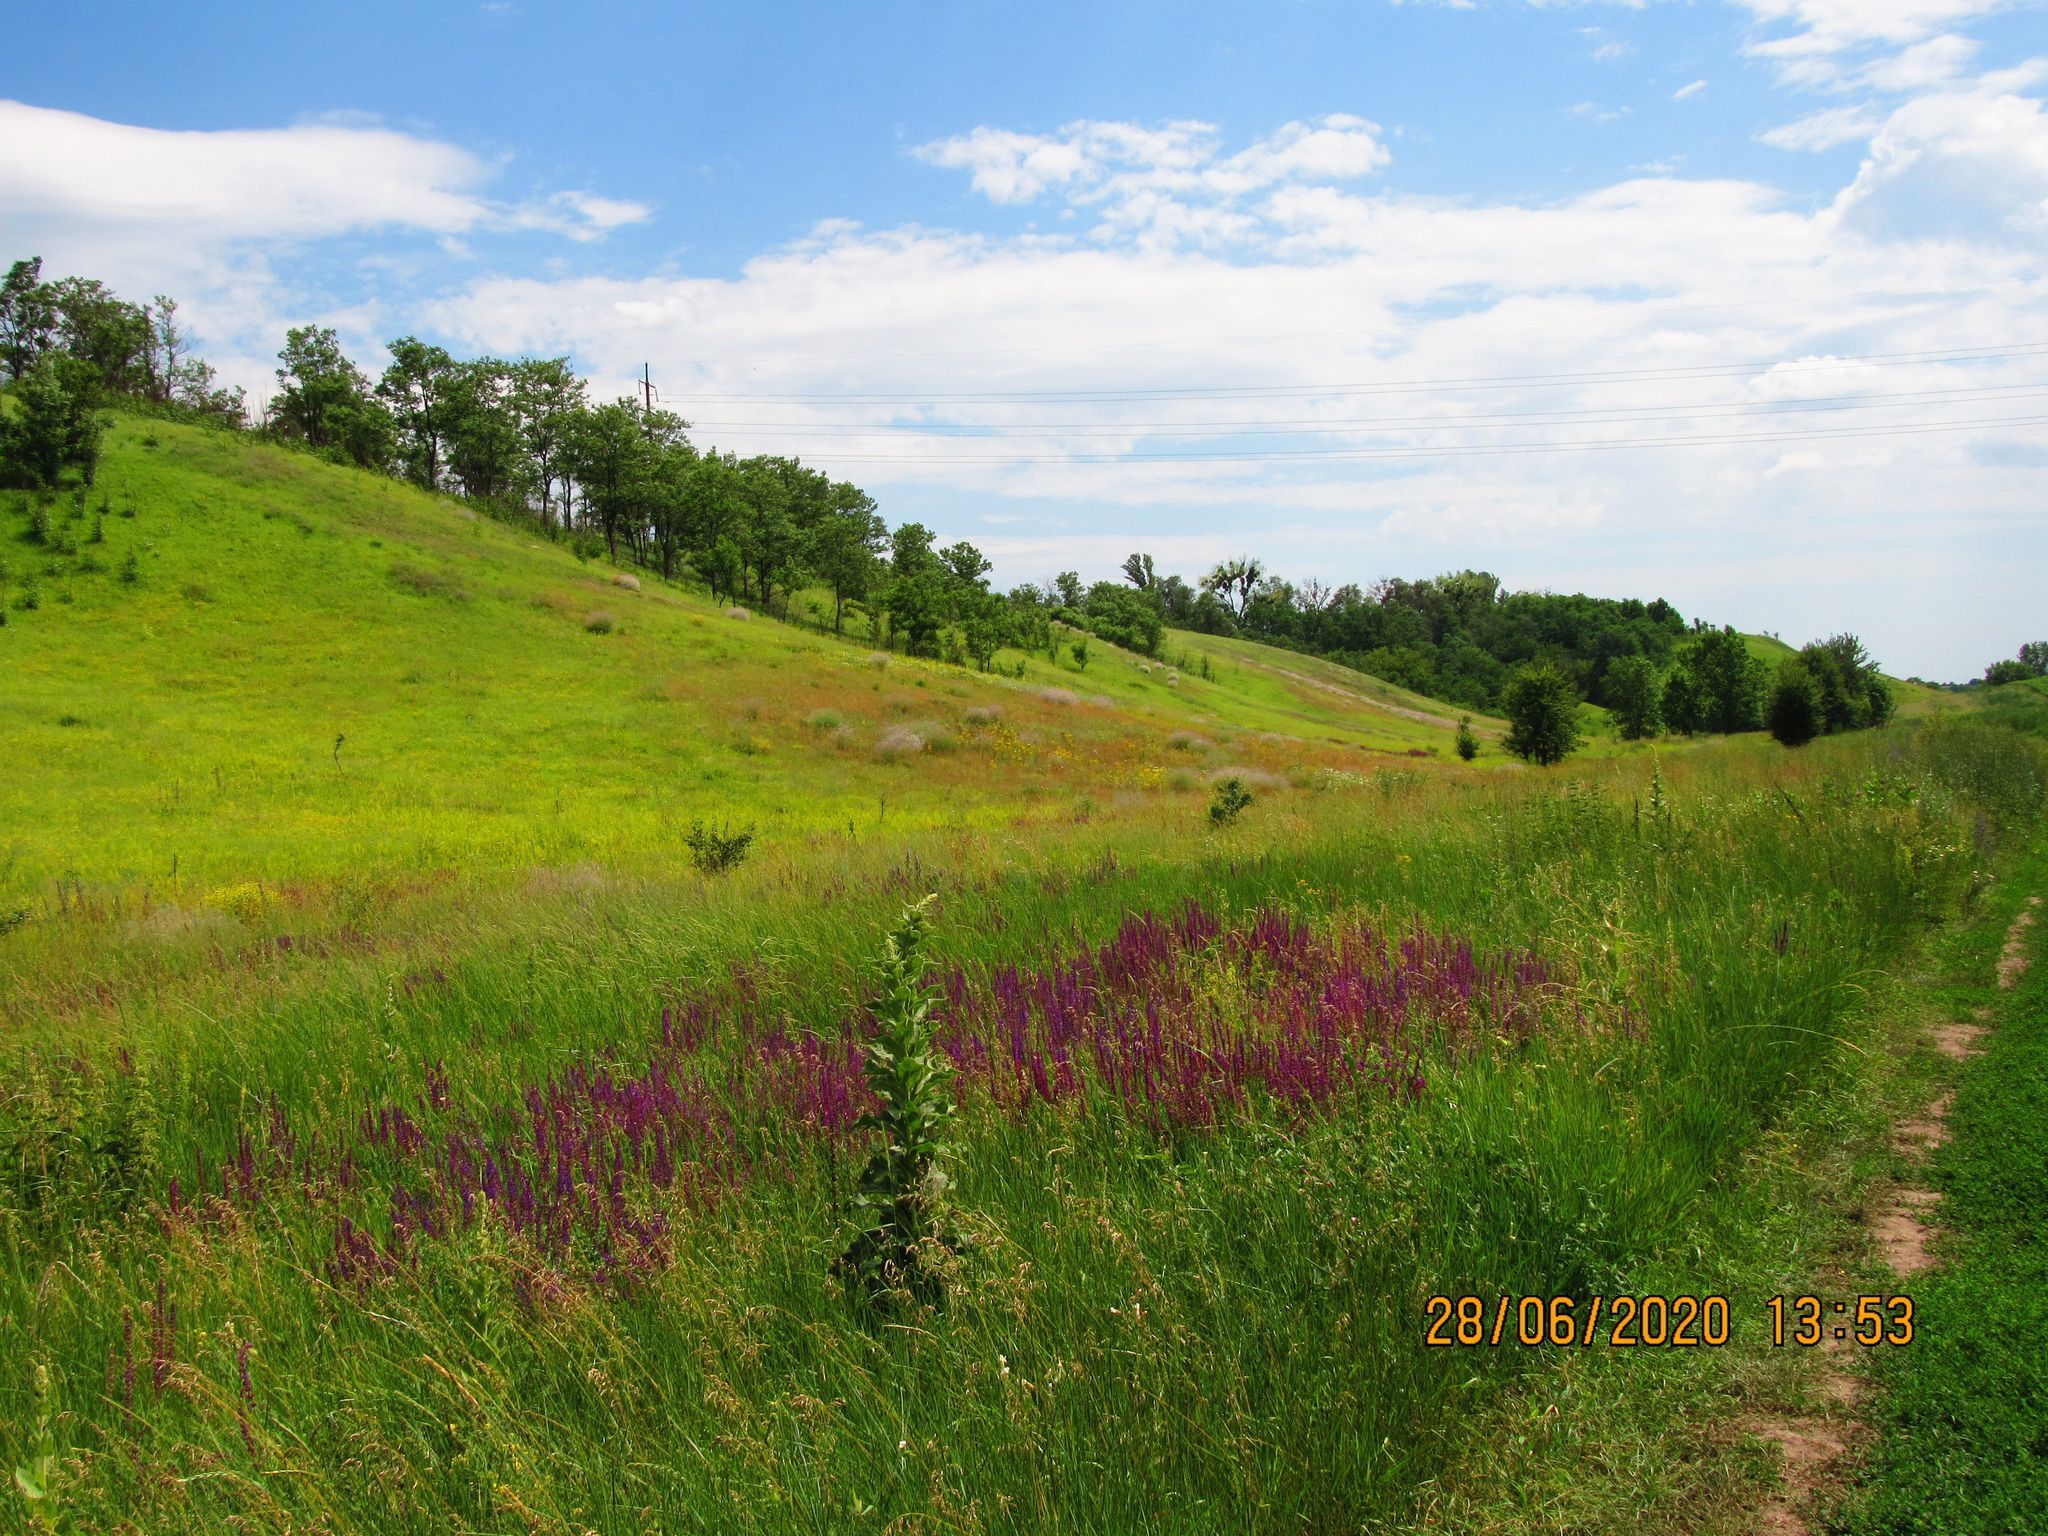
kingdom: Plantae
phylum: Tracheophyta
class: Magnoliopsida
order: Lamiales
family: Lamiaceae
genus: Salvia
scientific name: Salvia nemorosa
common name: Balkan clary
